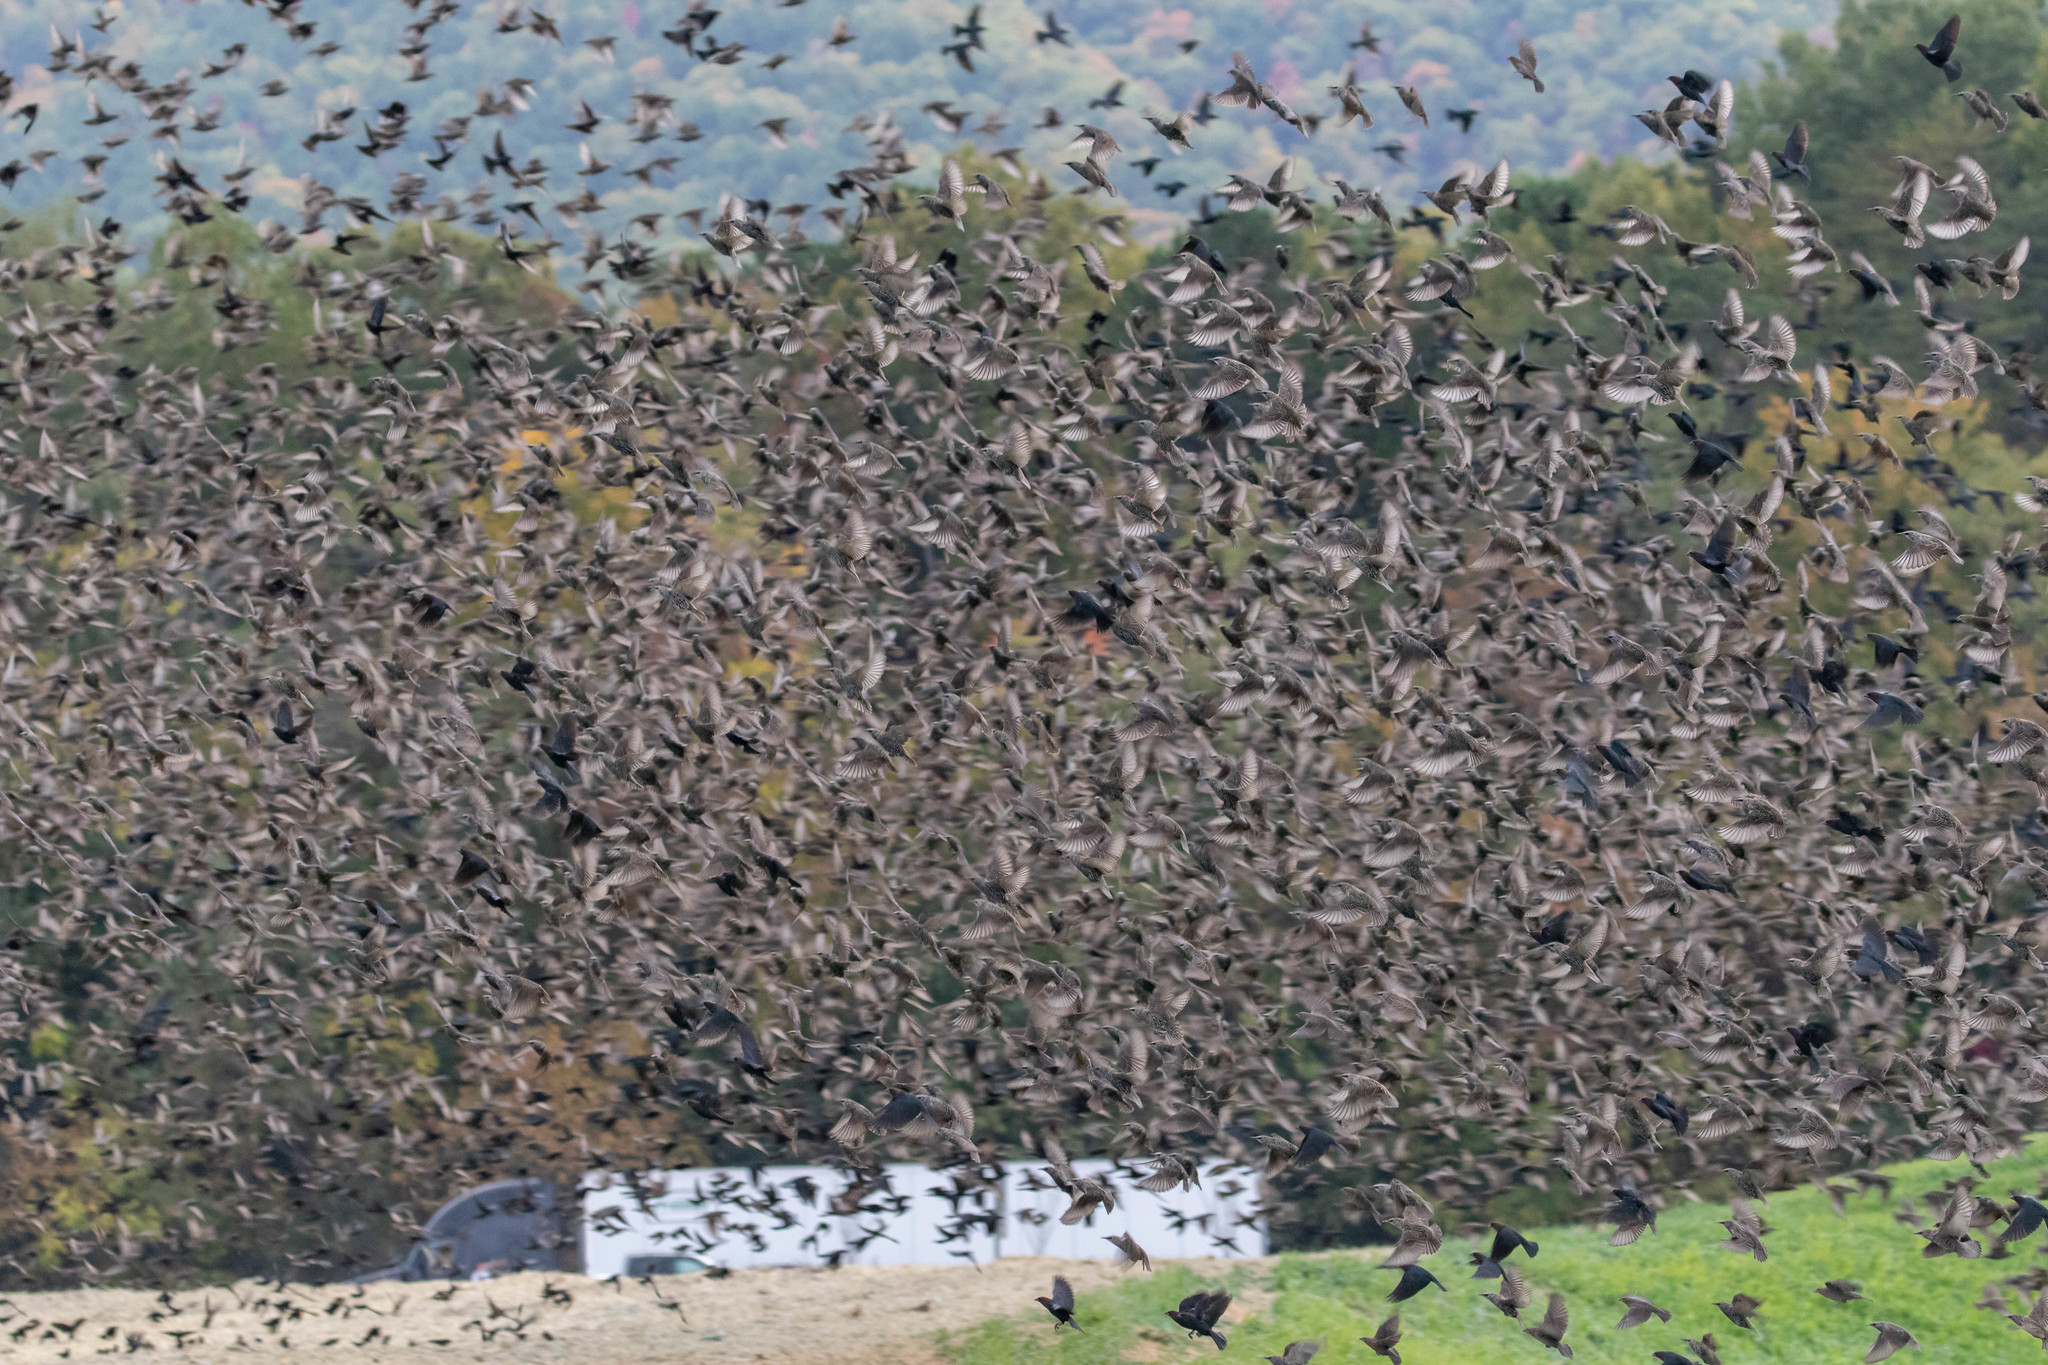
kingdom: Animalia
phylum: Chordata
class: Aves
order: Passeriformes
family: Sturnidae
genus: Sturnus
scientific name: Sturnus vulgaris
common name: Common starling
